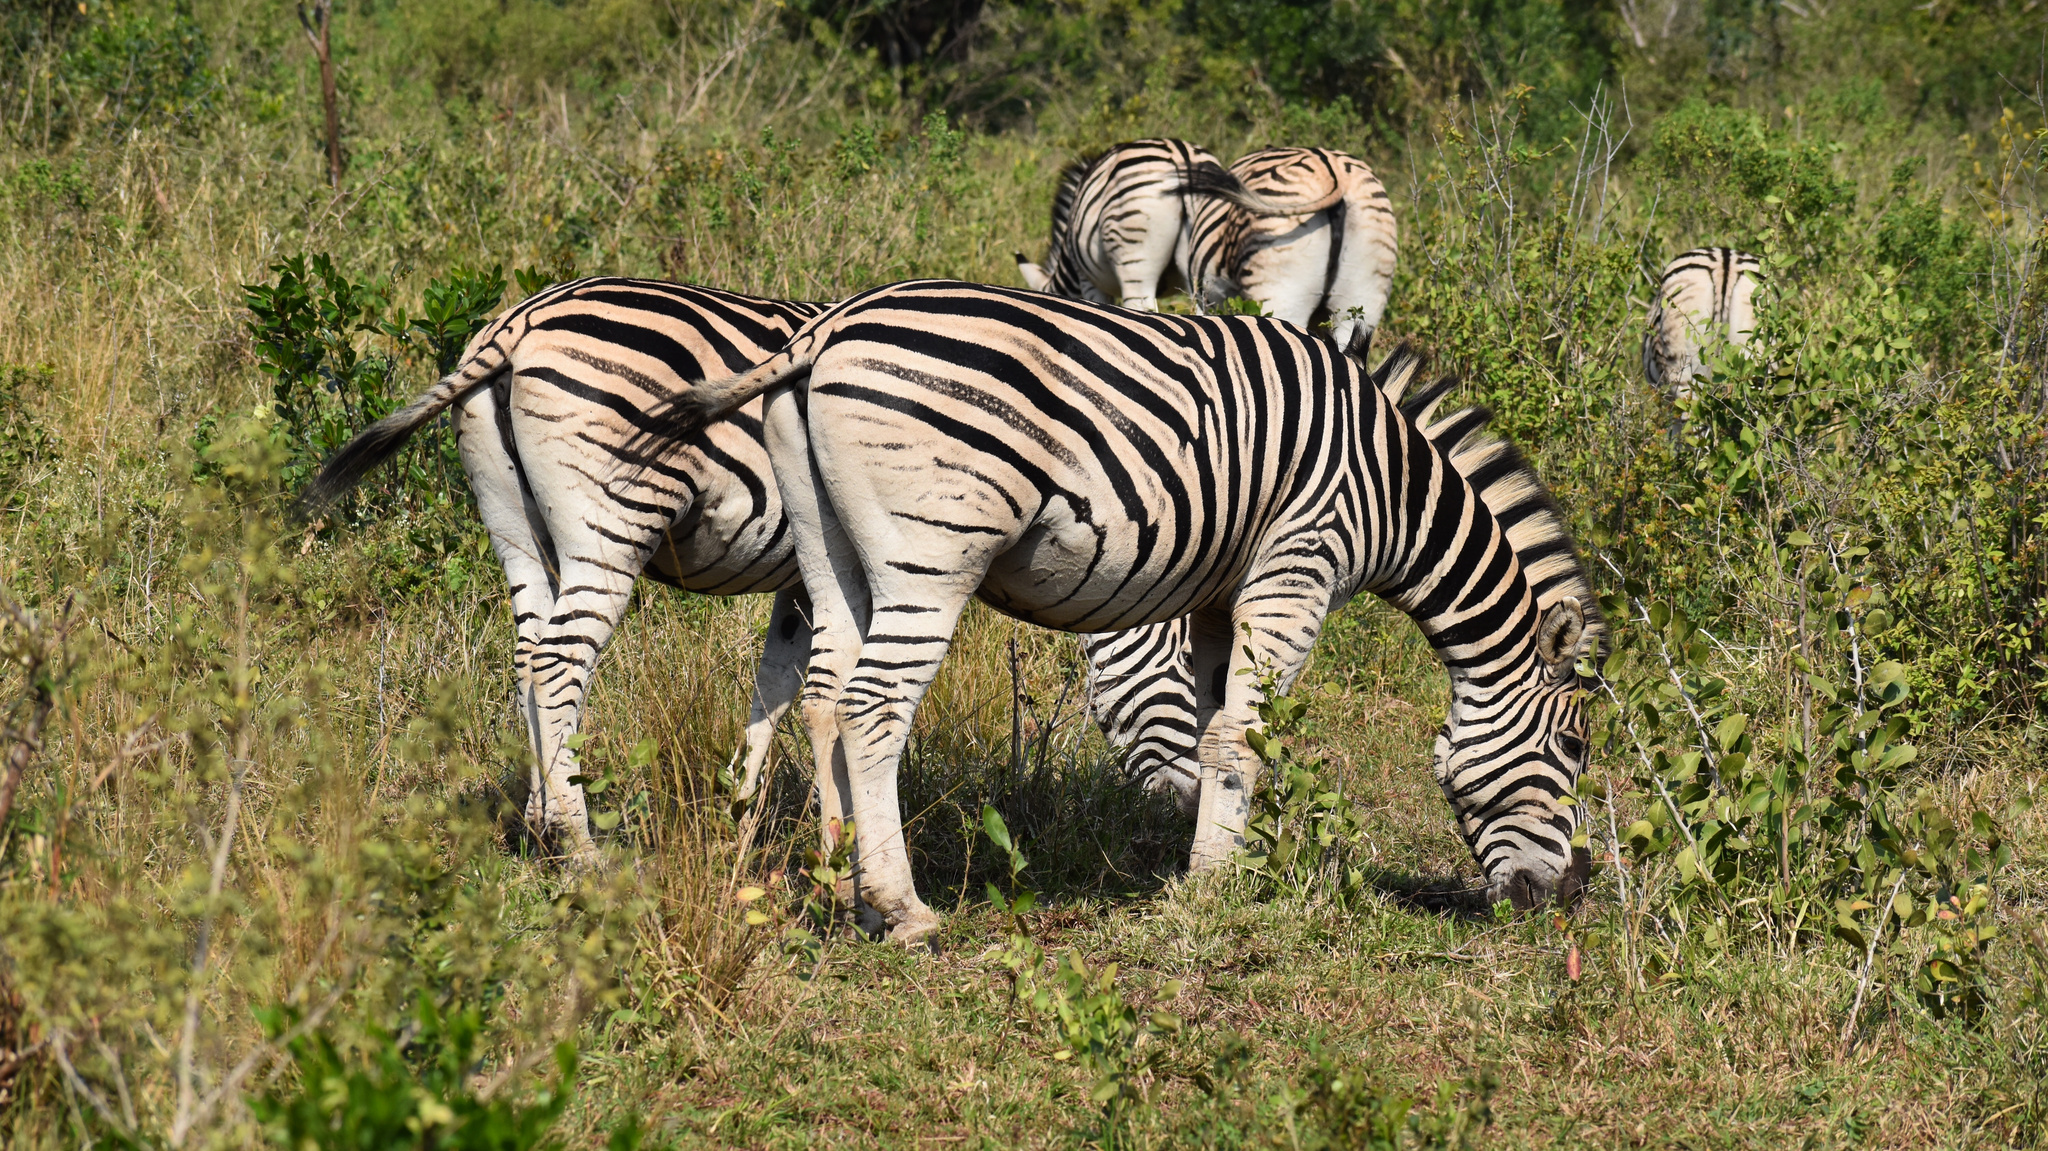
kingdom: Animalia
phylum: Chordata
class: Mammalia
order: Perissodactyla
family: Equidae
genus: Equus
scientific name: Equus quagga
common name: Plains zebra
